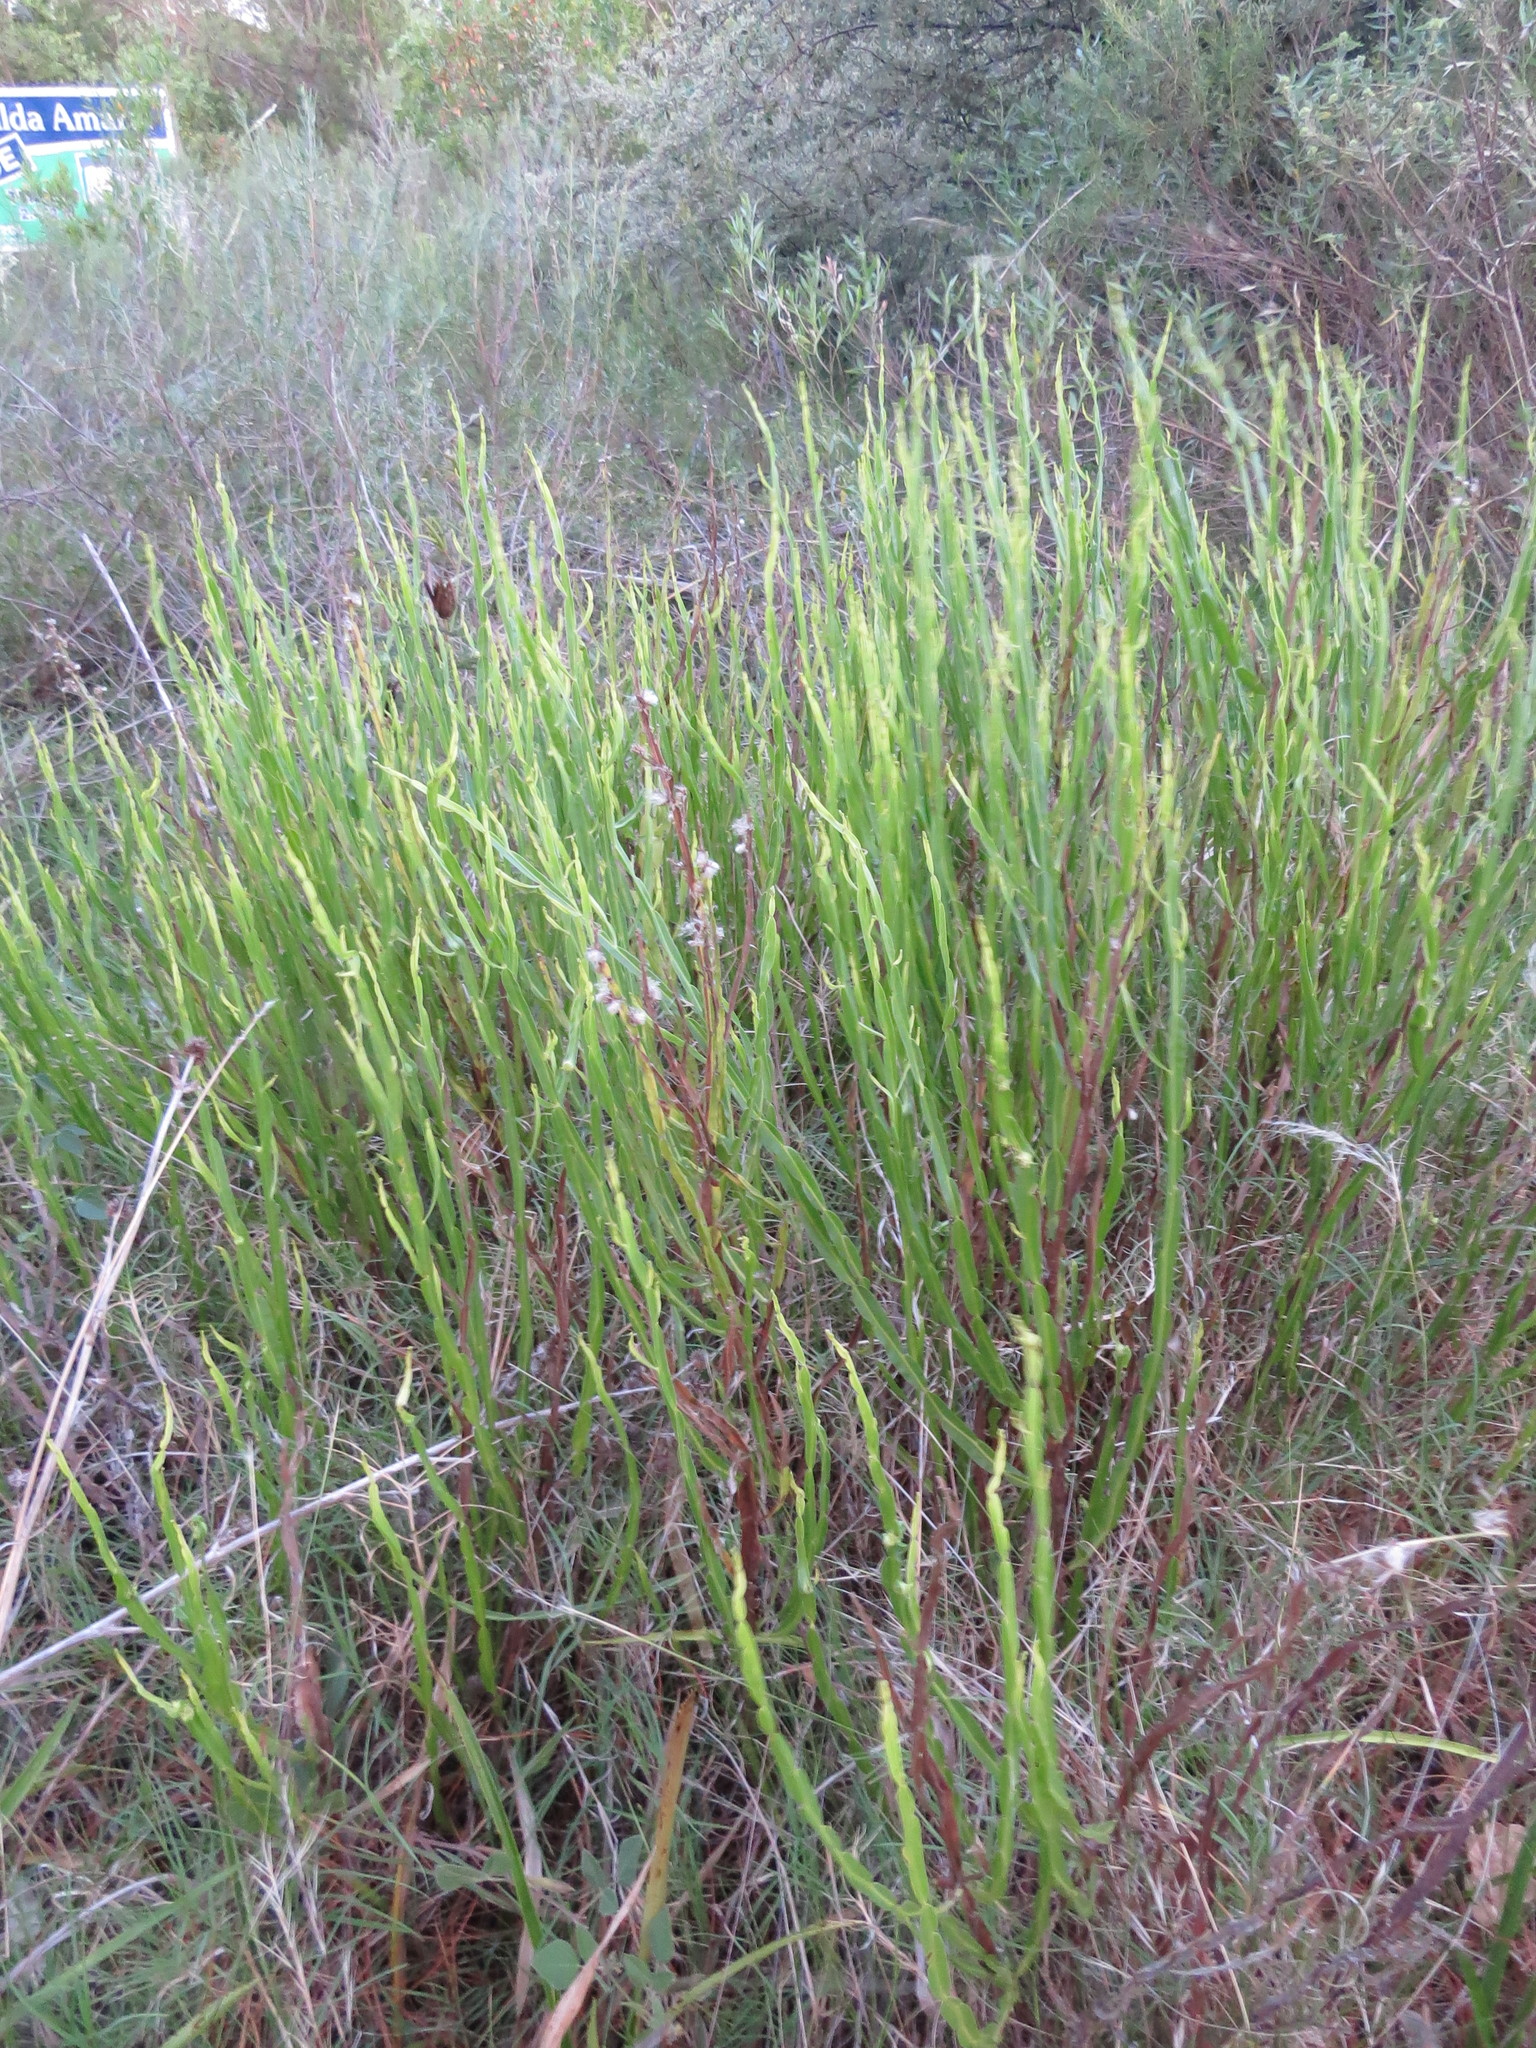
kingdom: Plantae
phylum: Tracheophyta
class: Magnoliopsida
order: Asterales
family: Asteraceae
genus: Baccharis
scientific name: Baccharis trimera
